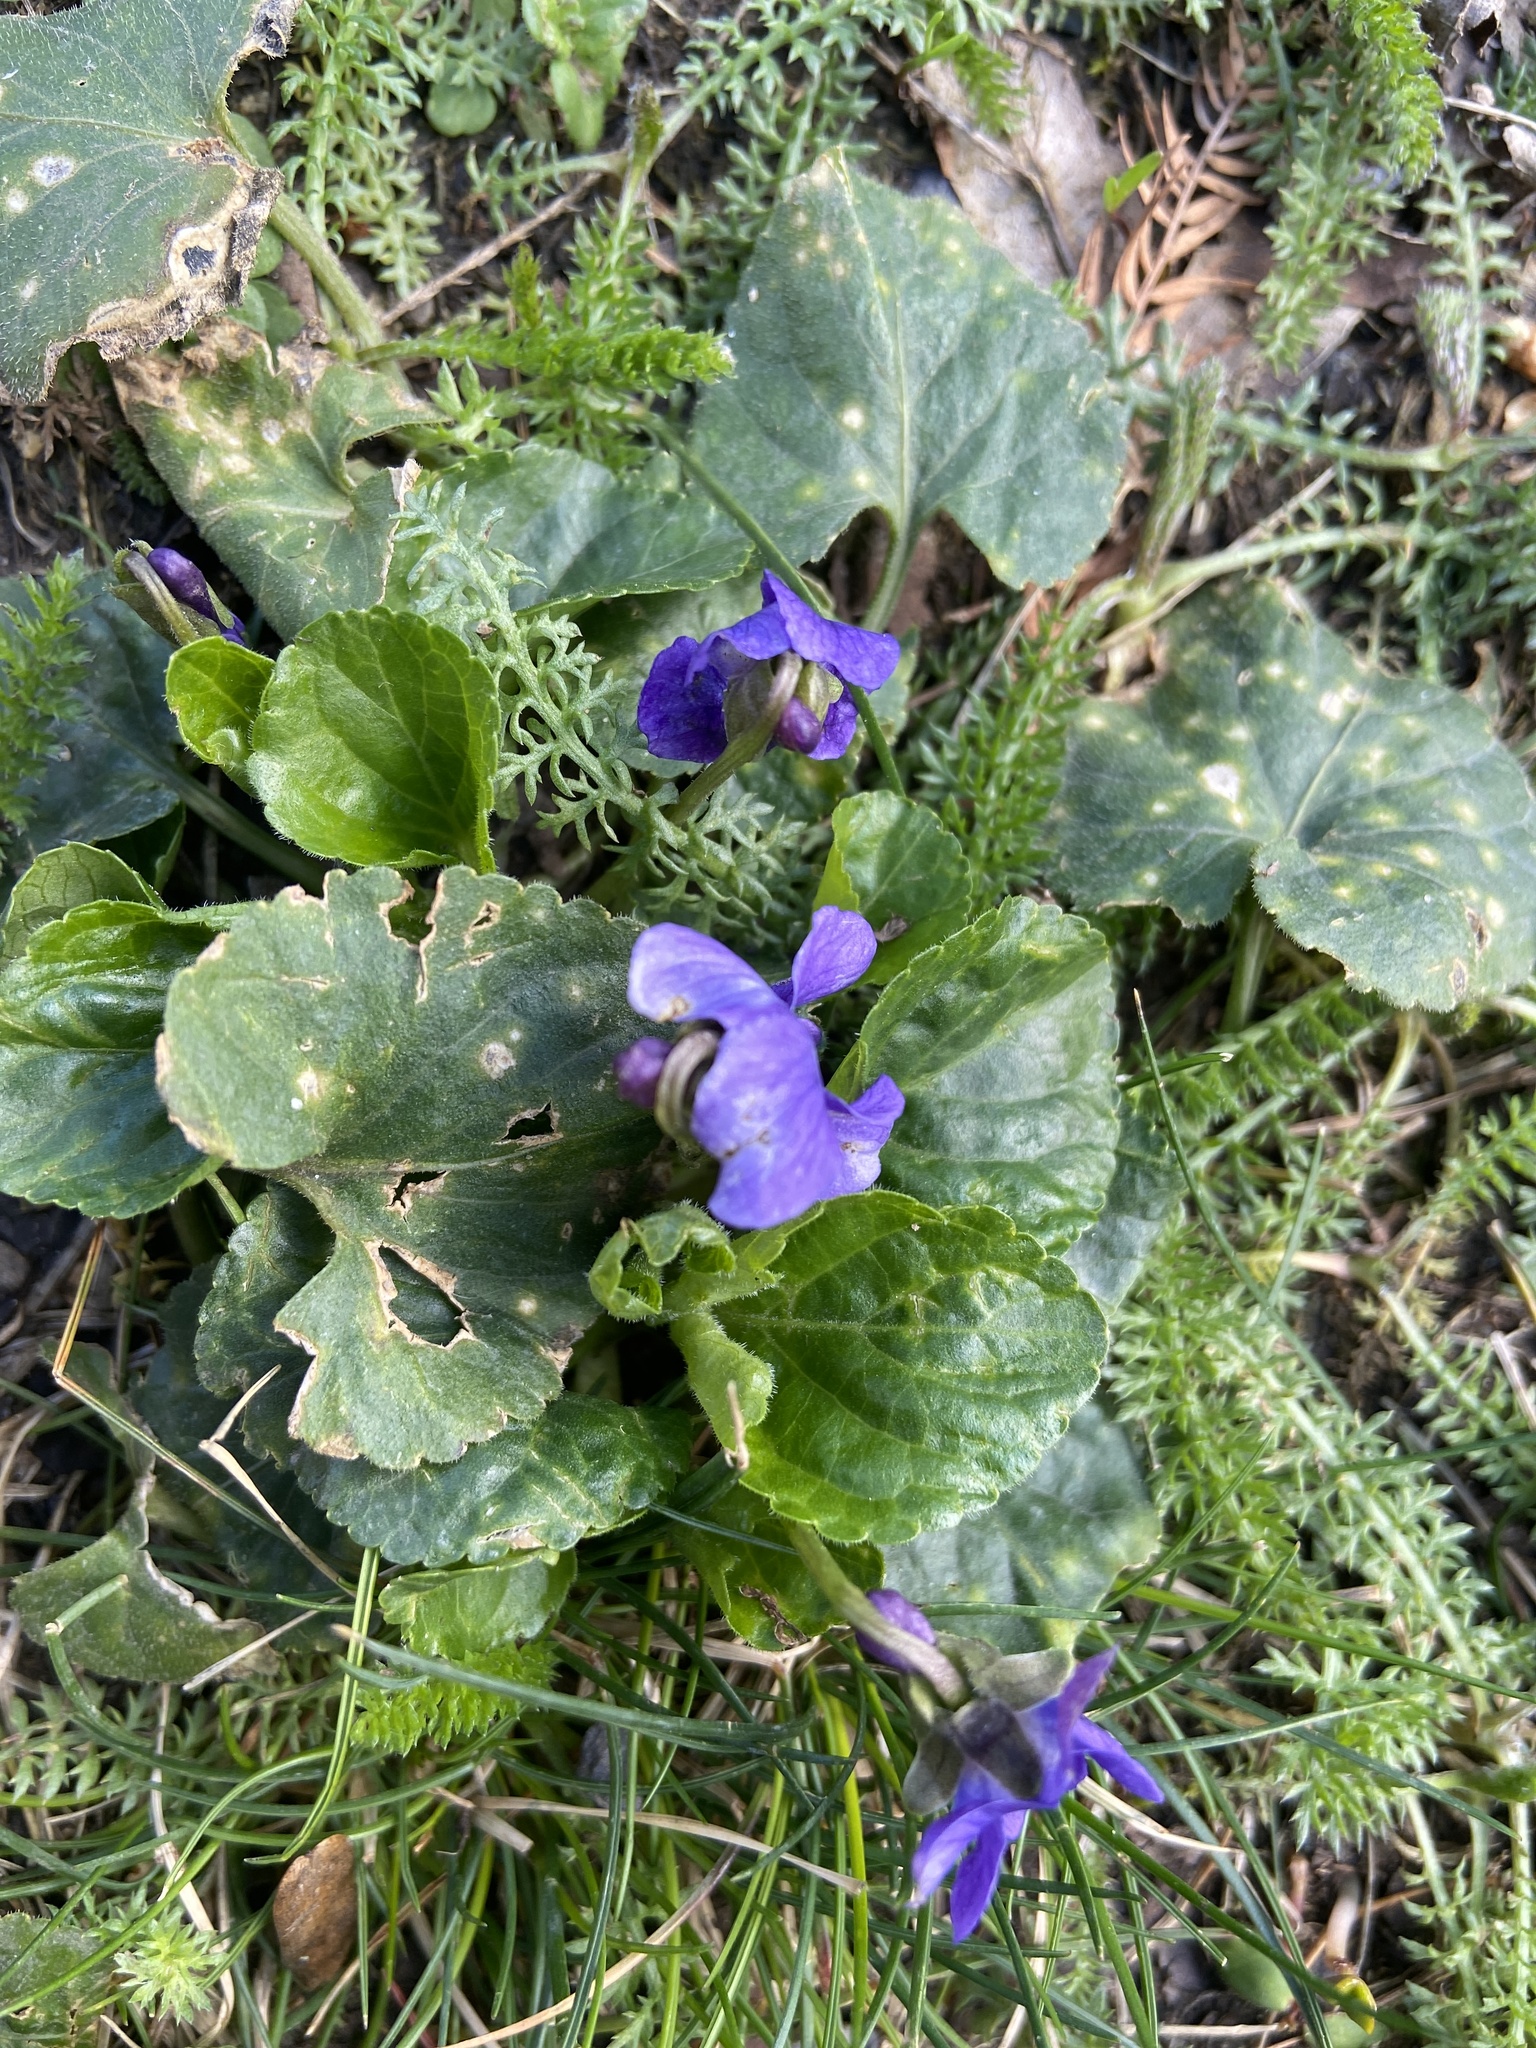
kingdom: Plantae
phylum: Tracheophyta
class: Magnoliopsida
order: Malpighiales
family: Violaceae
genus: Viola
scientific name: Viola odorata
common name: Sweet violet
